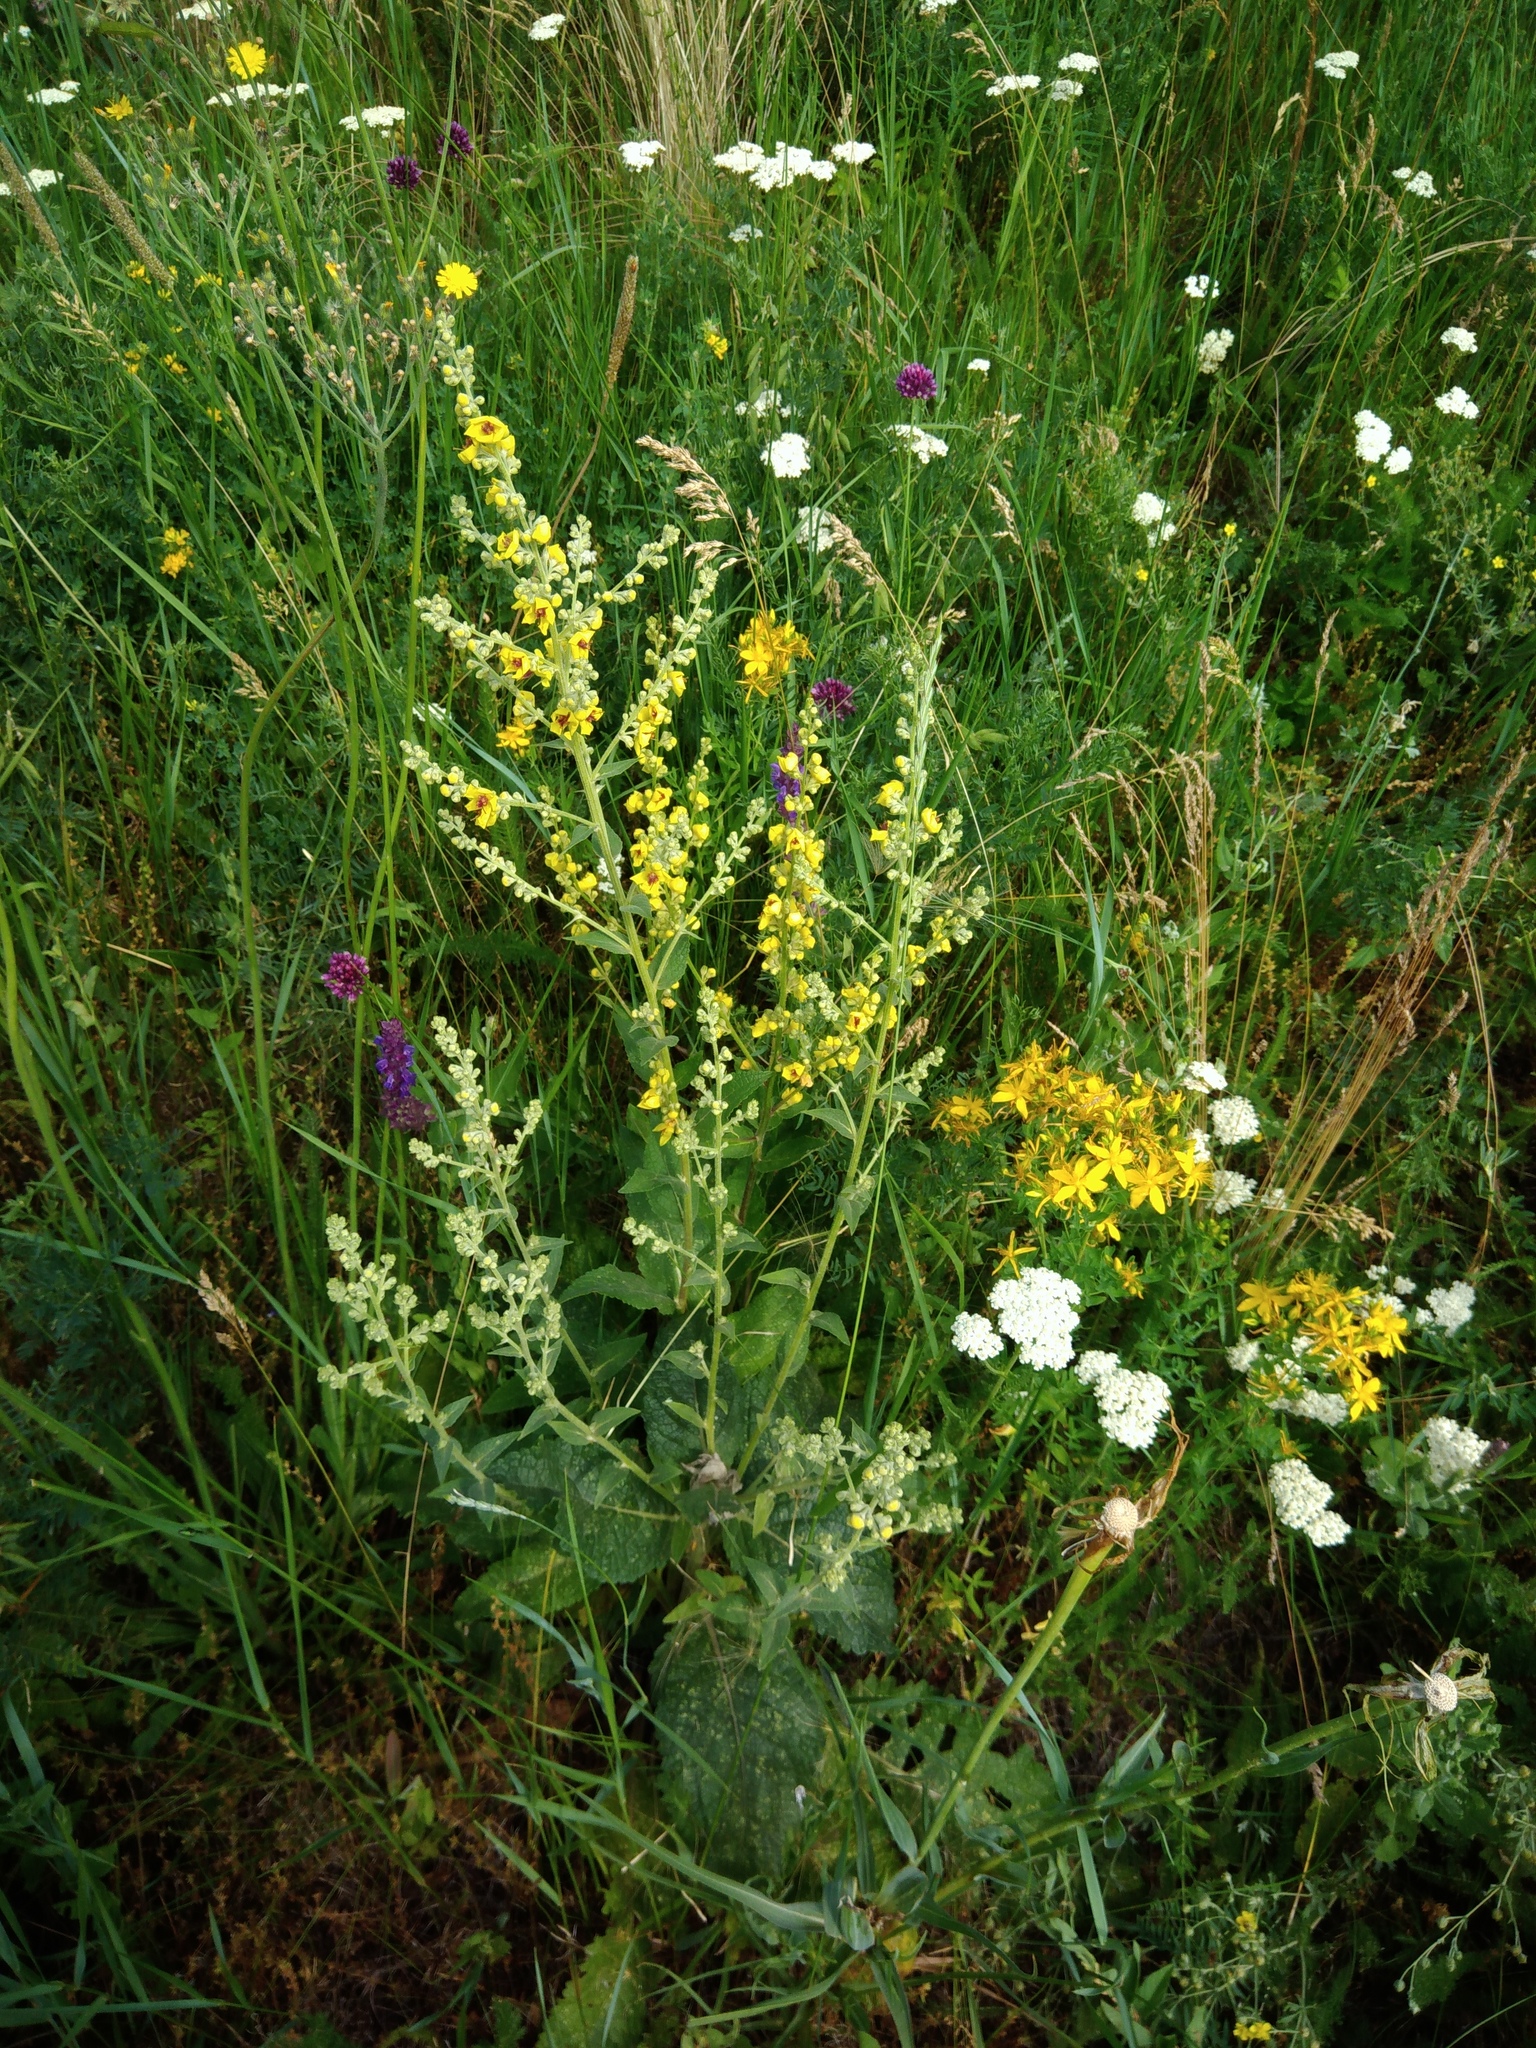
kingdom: Plantae
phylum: Tracheophyta
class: Magnoliopsida
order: Lamiales
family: Scrophulariaceae
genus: Verbascum
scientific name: Verbascum chaixii
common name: Nettle-leaved mullein
